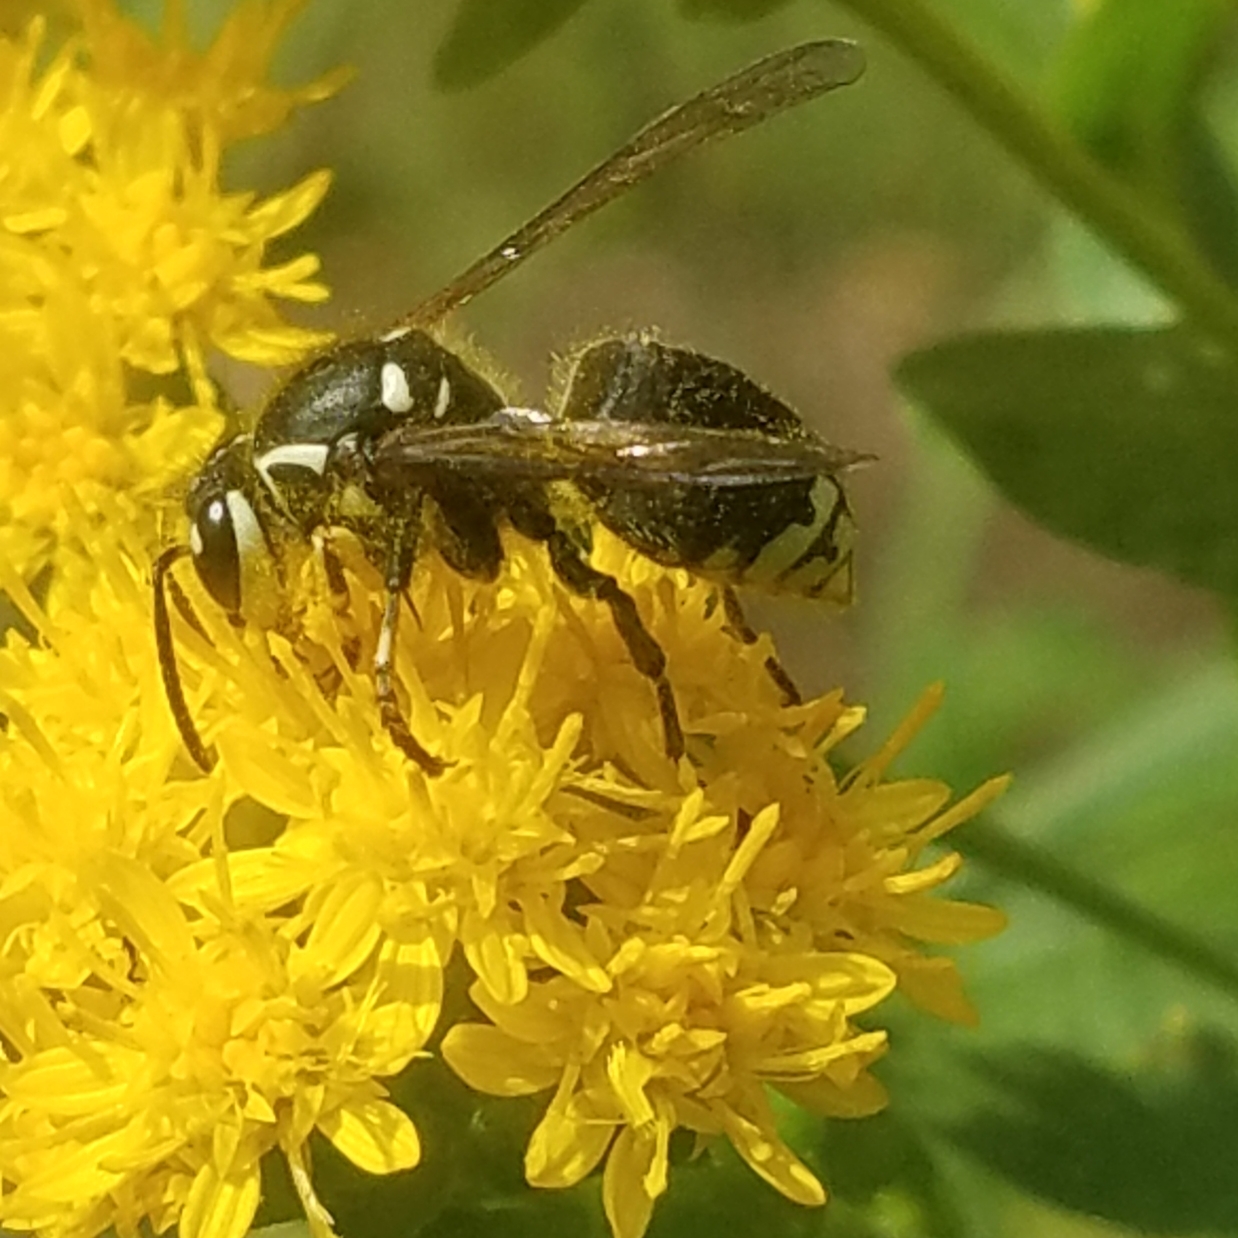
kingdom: Animalia
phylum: Arthropoda
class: Insecta
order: Hymenoptera
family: Vespidae
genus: Dolichovespula
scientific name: Dolichovespula maculata
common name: Bald-faced hornet
